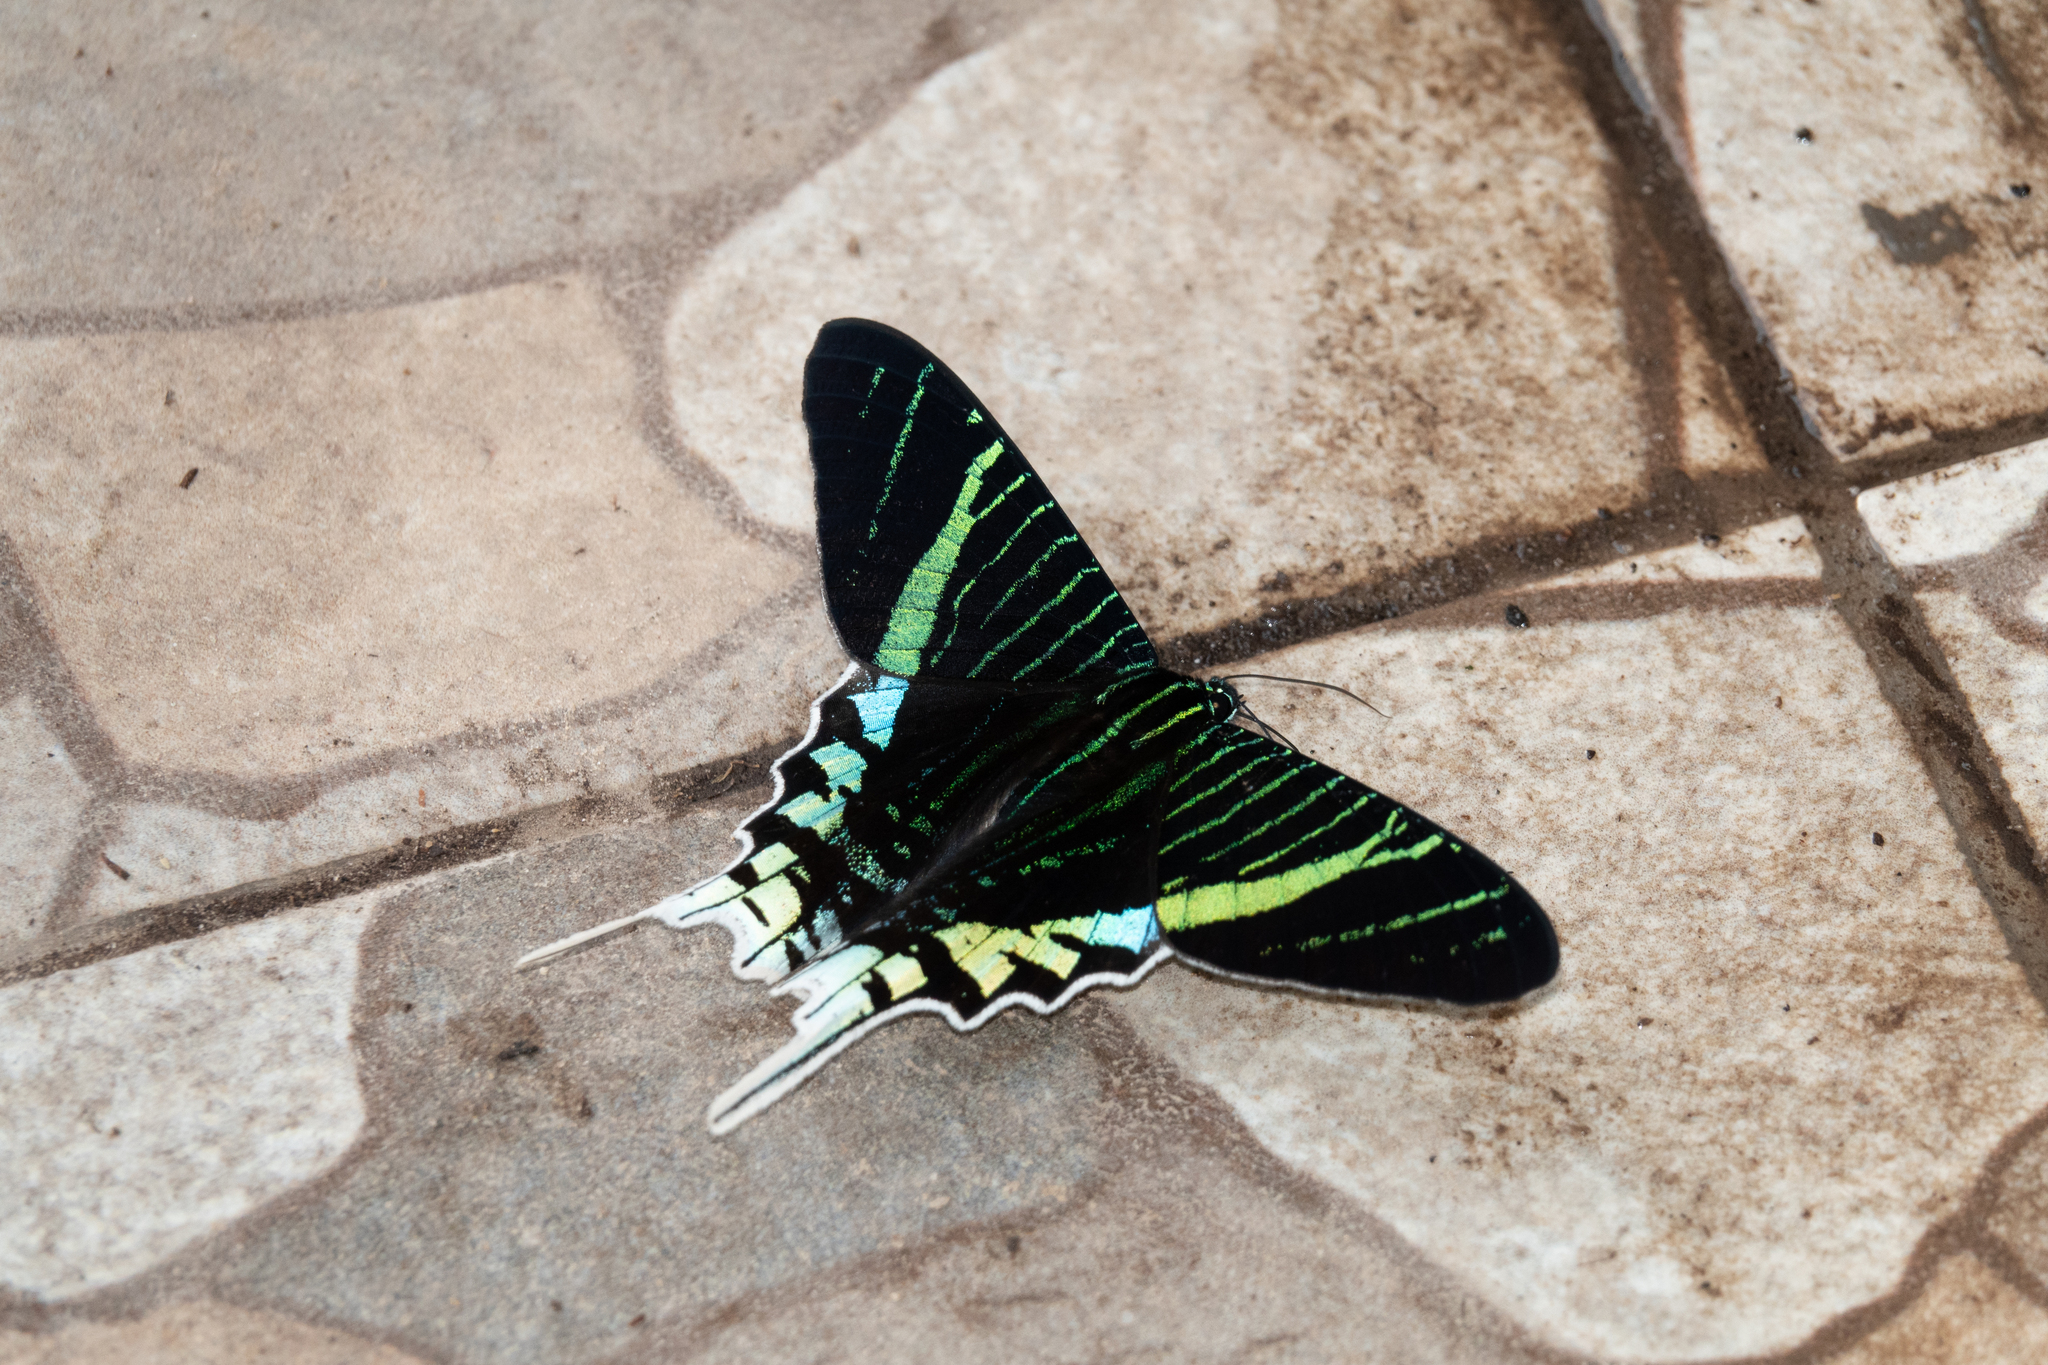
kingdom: Animalia
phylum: Arthropoda
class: Insecta
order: Lepidoptera
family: Uraniidae
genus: Urania
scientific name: Urania leilus
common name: Peacock moth
